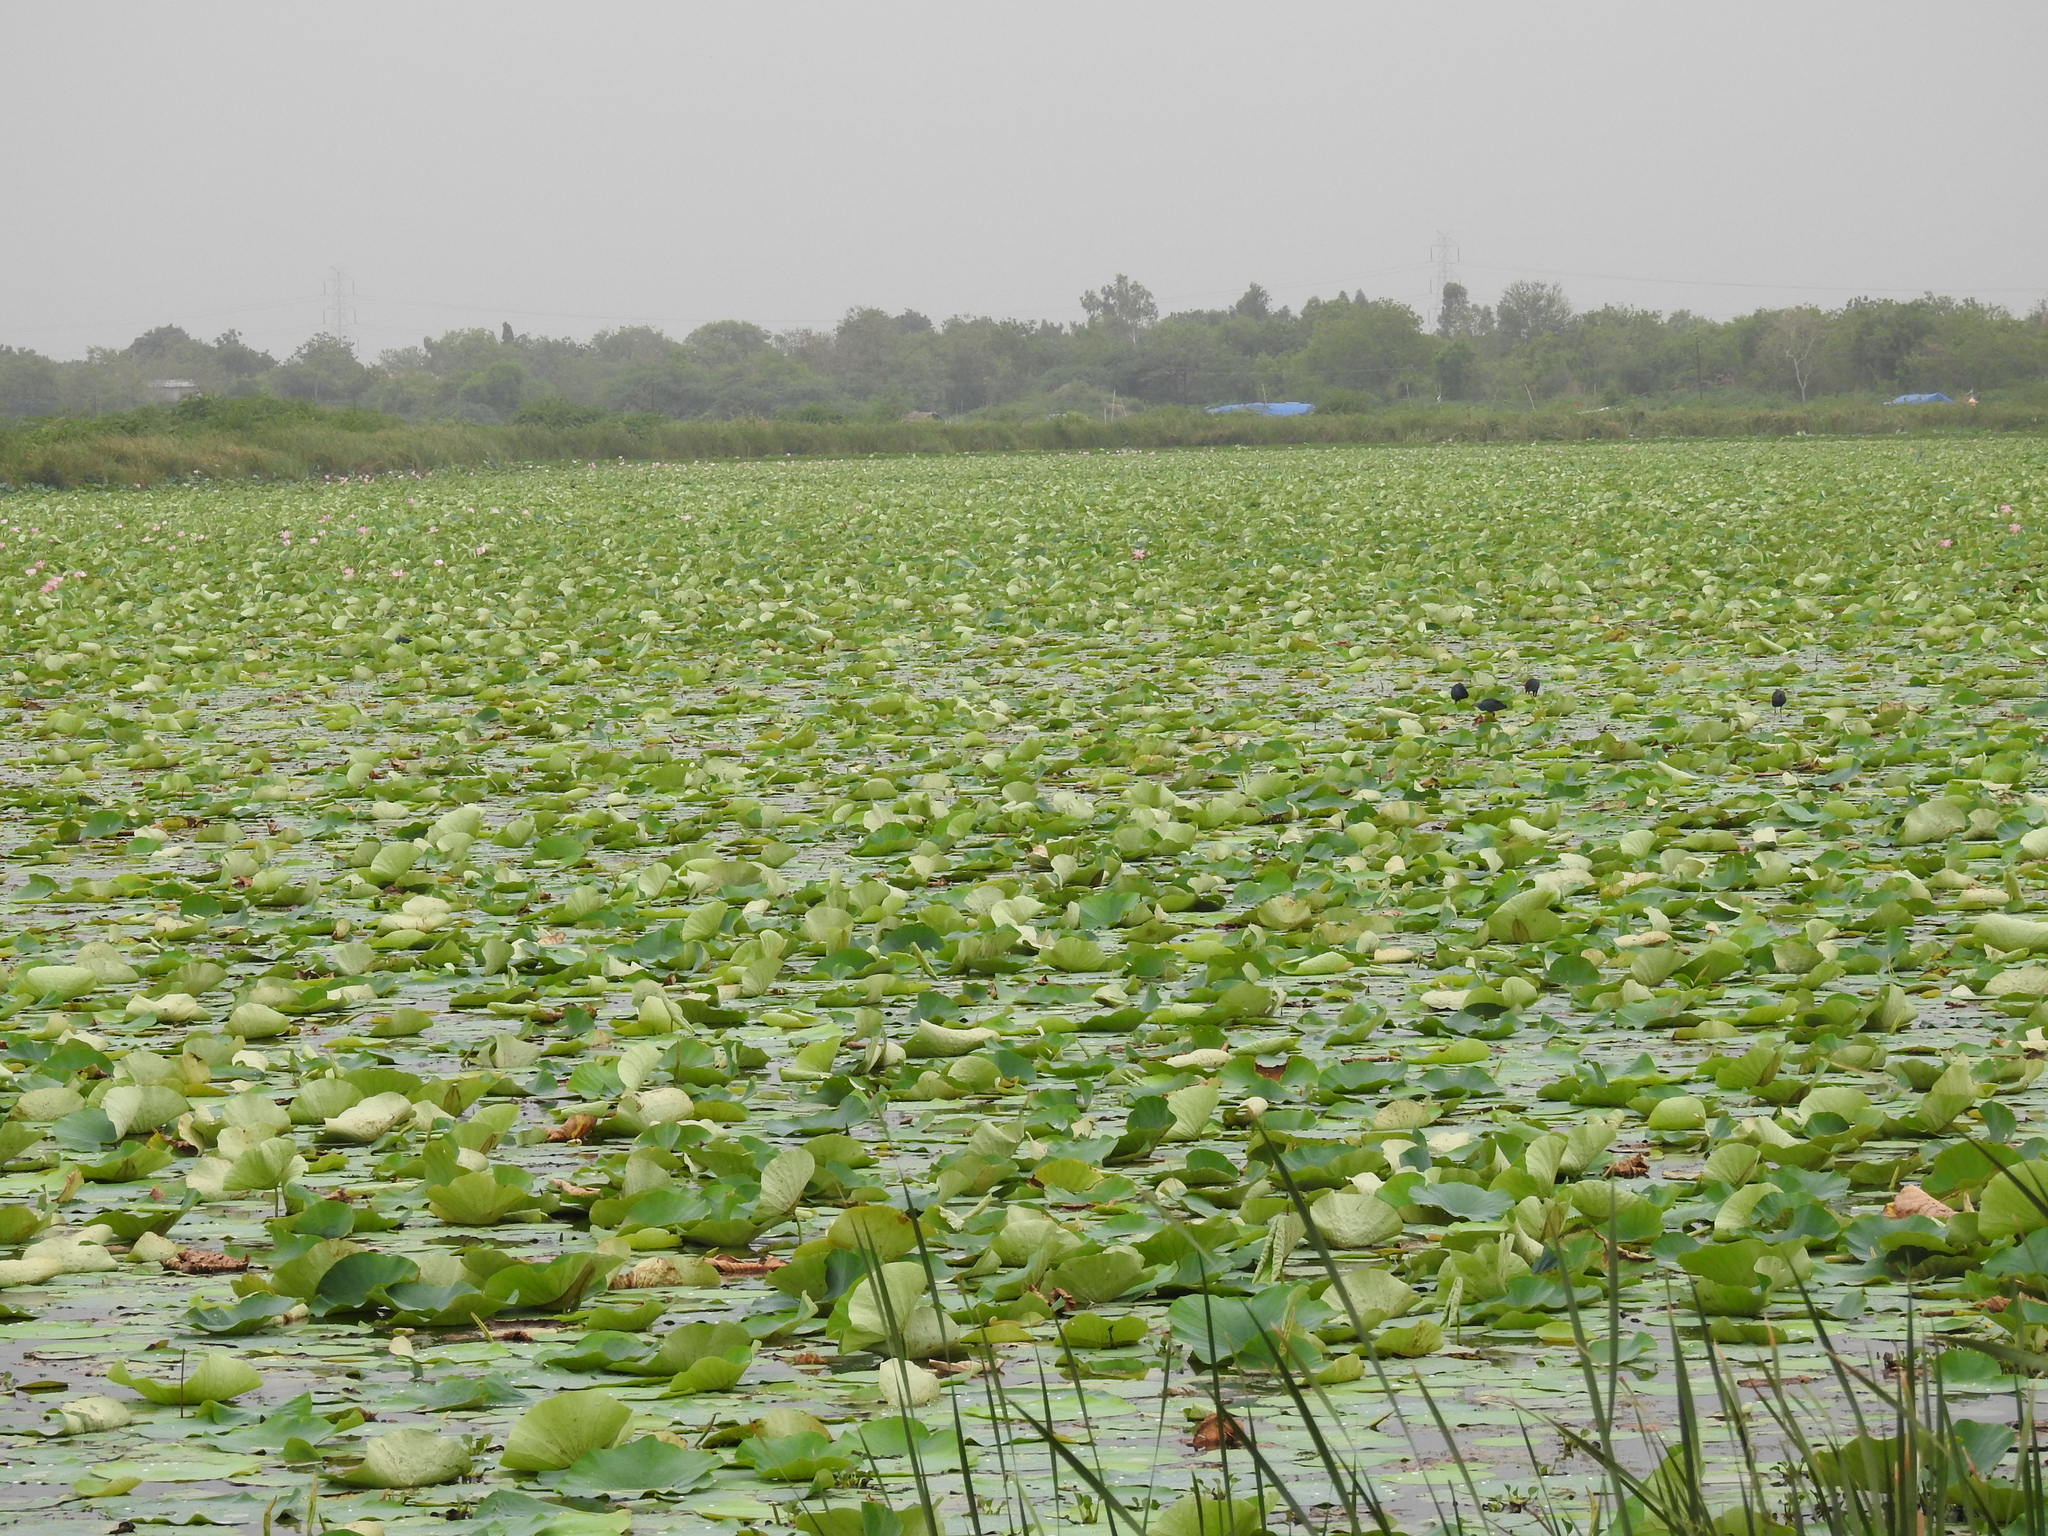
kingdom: Plantae
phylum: Tracheophyta
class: Magnoliopsida
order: Proteales
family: Nelumbonaceae
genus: Nelumbo
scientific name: Nelumbo nucifera
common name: Sacred lotus
